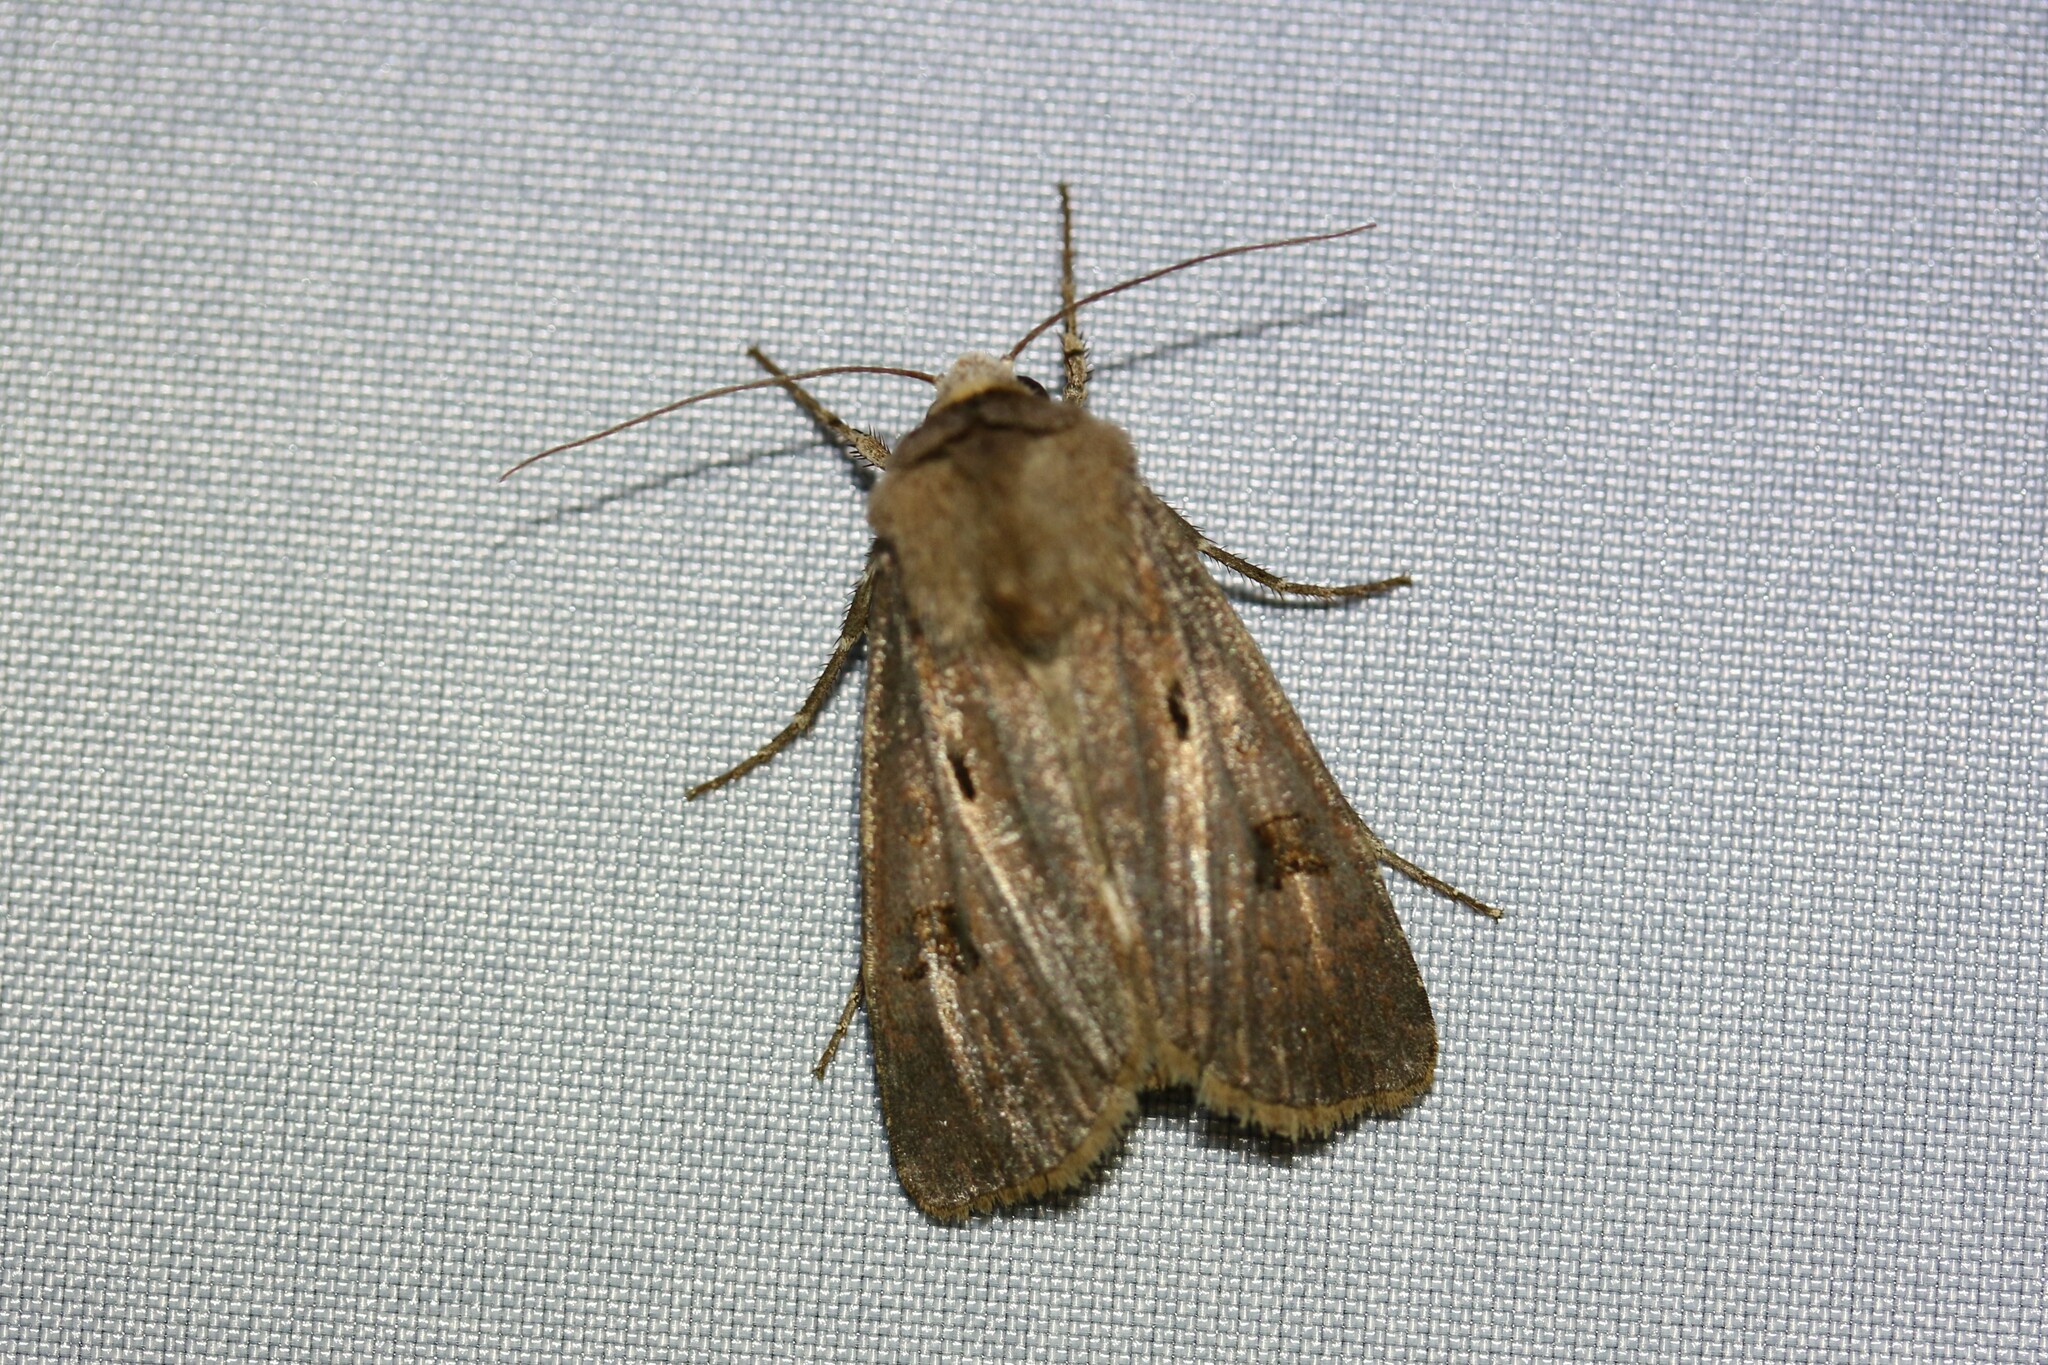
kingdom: Animalia
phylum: Arthropoda
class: Insecta
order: Lepidoptera
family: Noctuidae
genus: Agrotis
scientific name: Agrotis exclamationis
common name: Heart and dart
